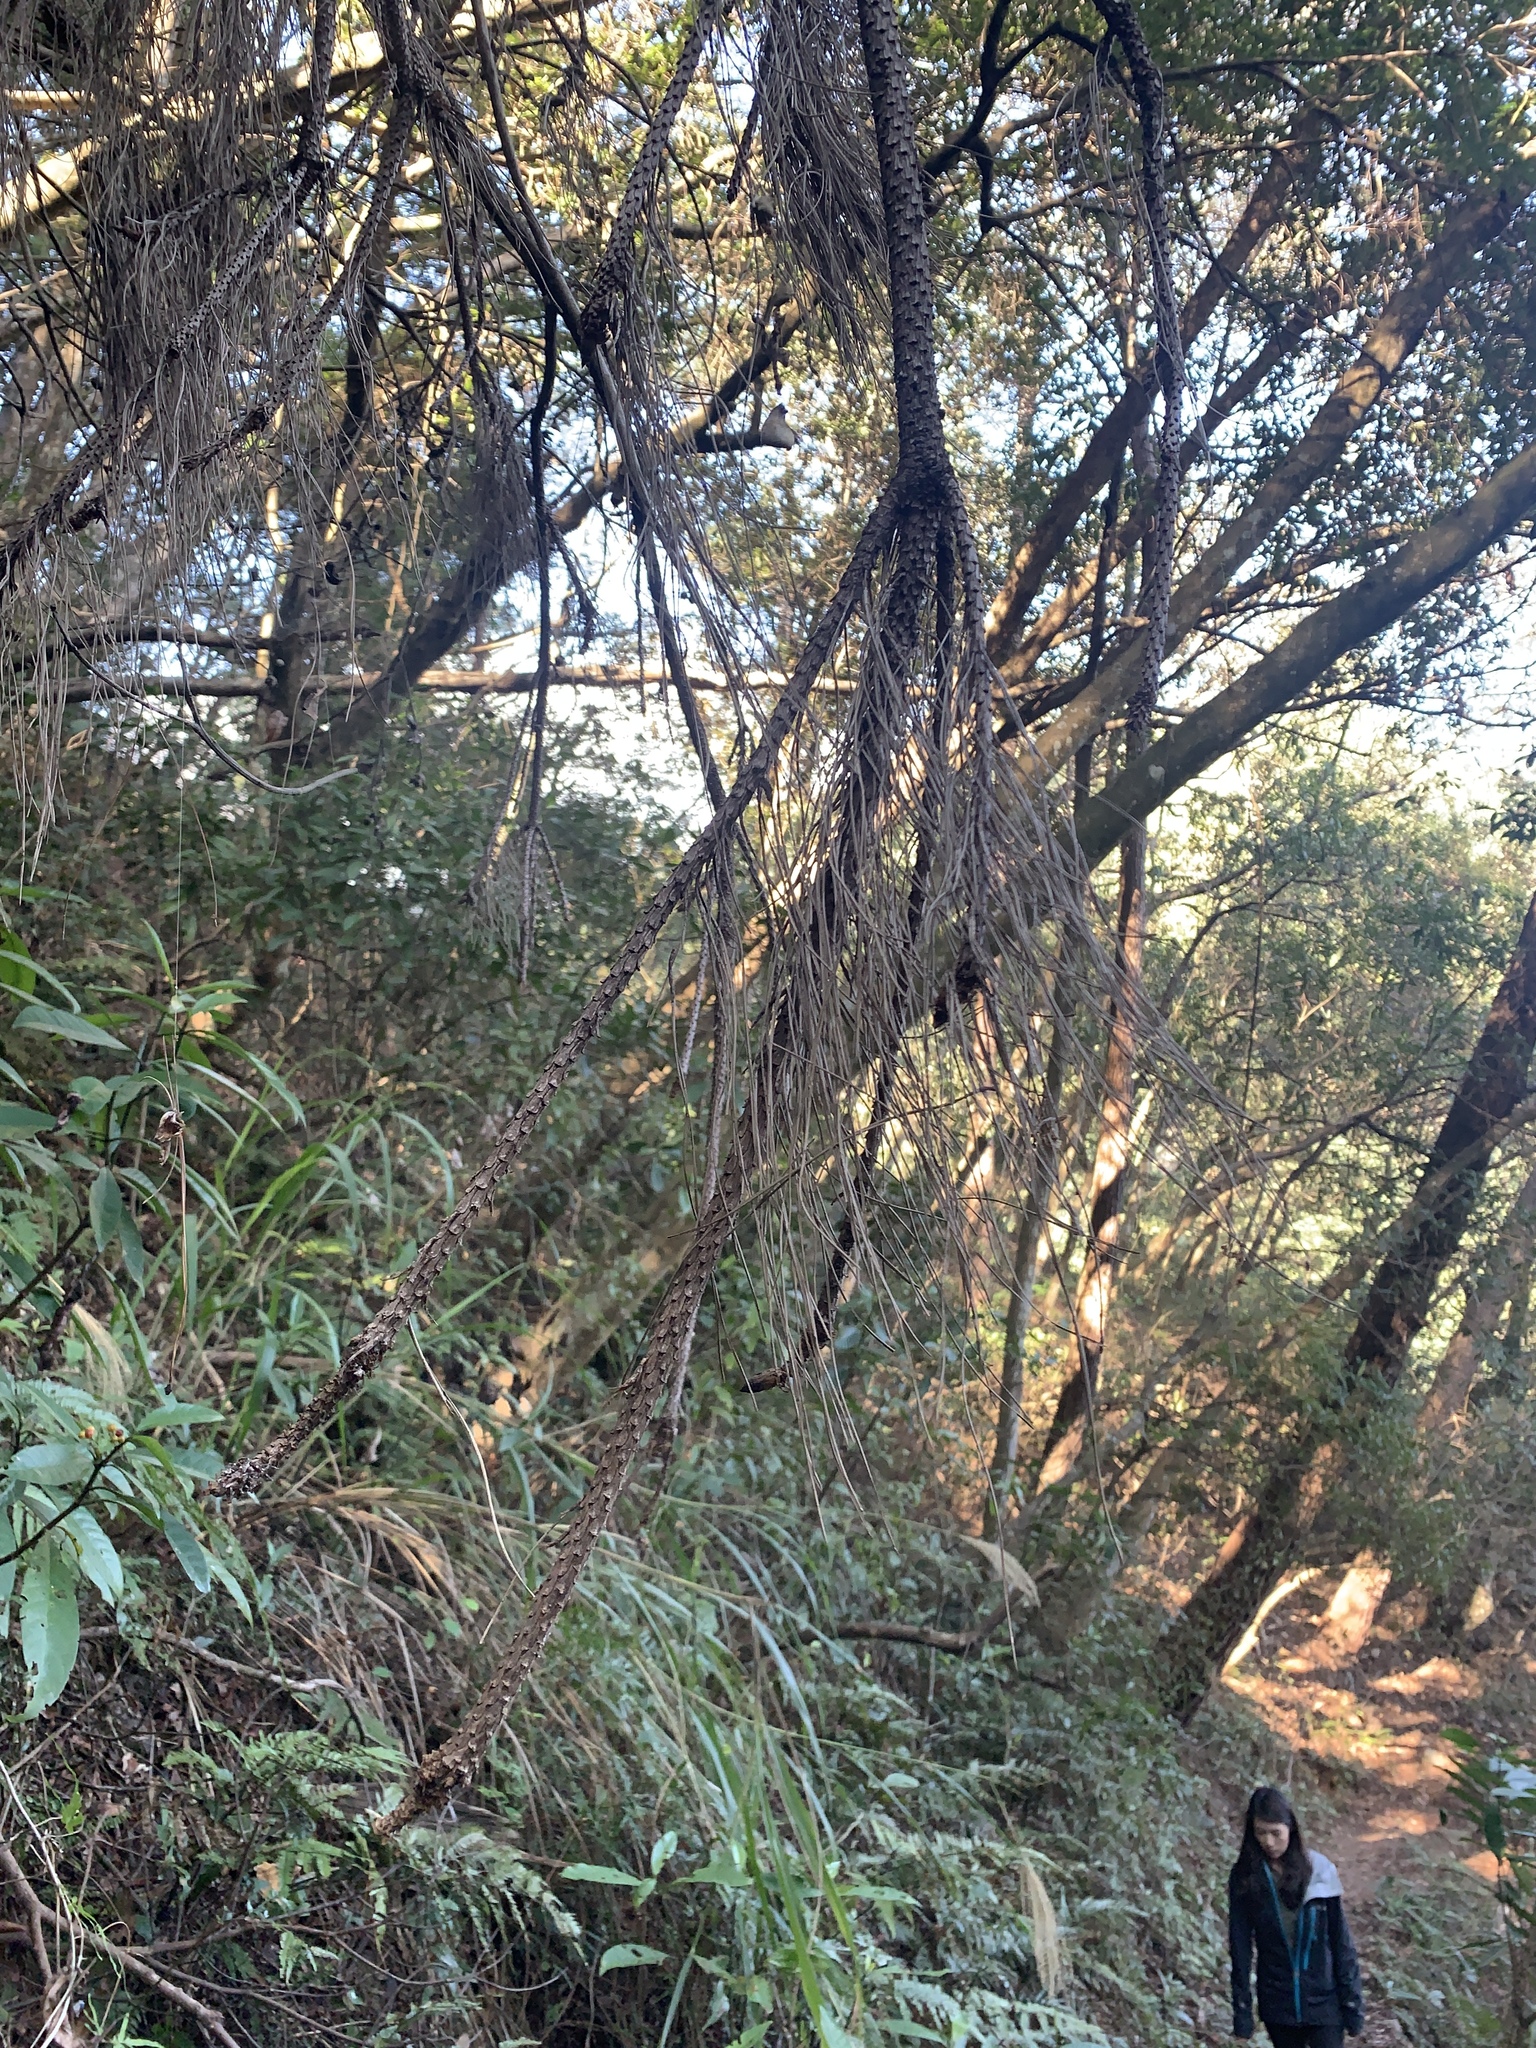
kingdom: Plantae
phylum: Tracheophyta
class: Pinopsida
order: Pinales
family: Pinaceae
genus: Pinus
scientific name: Pinus taiwanensis
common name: Formosa pine
